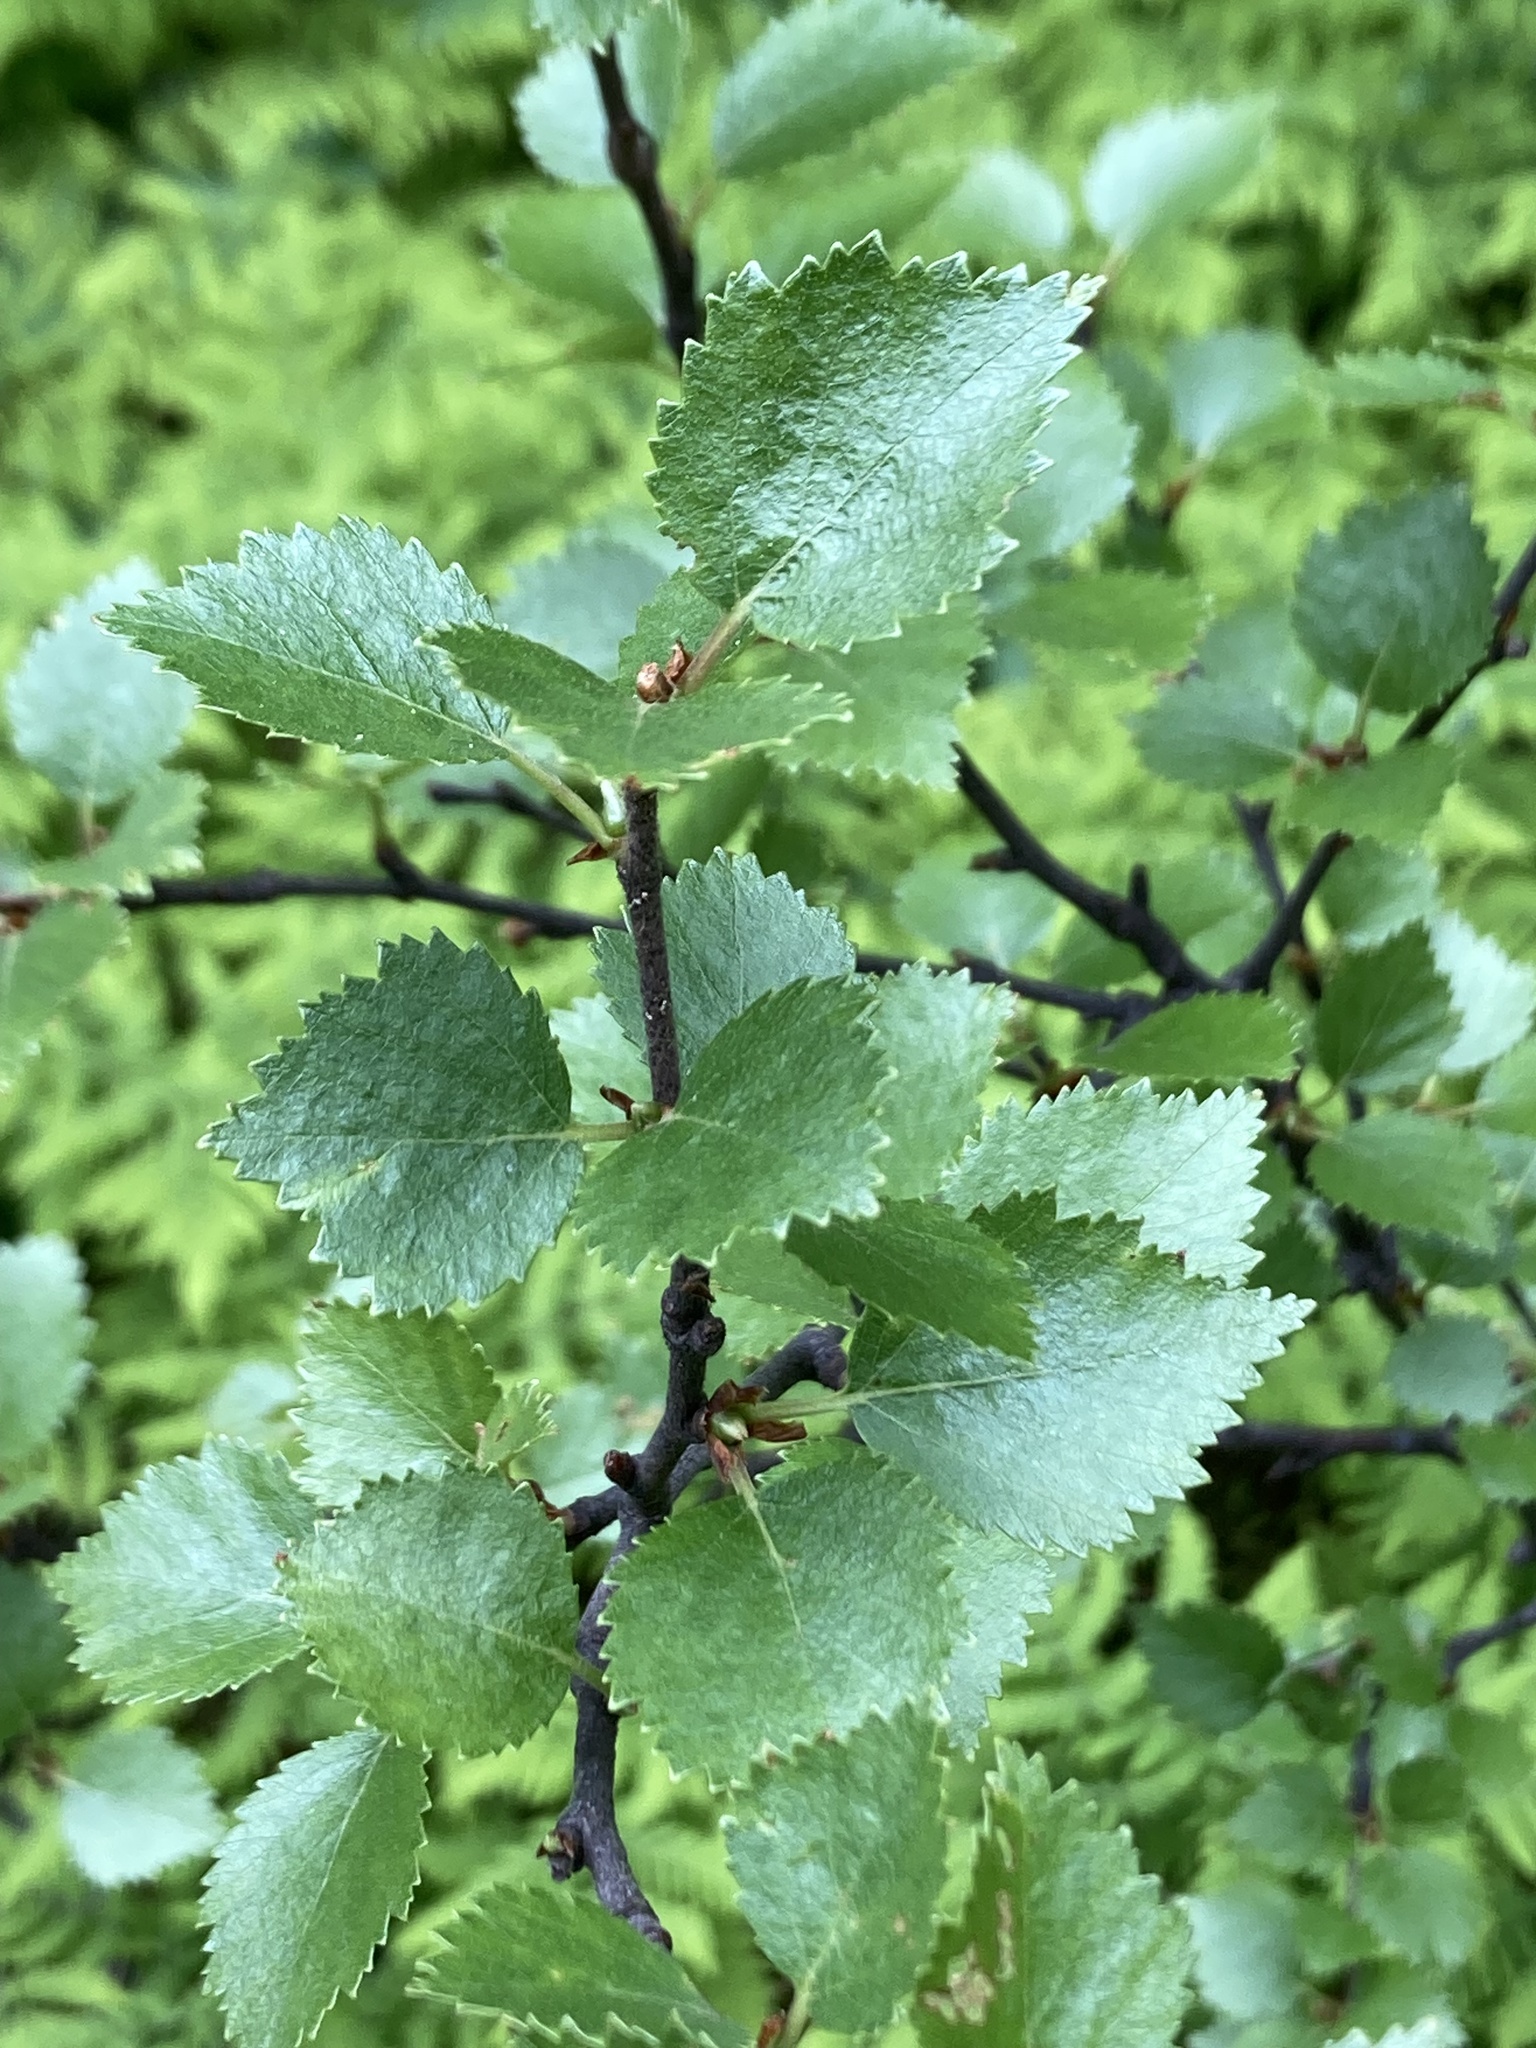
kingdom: Plantae
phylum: Tracheophyta
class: Magnoliopsida
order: Fagales
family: Betulaceae
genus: Betula
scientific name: Betula pubescens
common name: Downy birch
